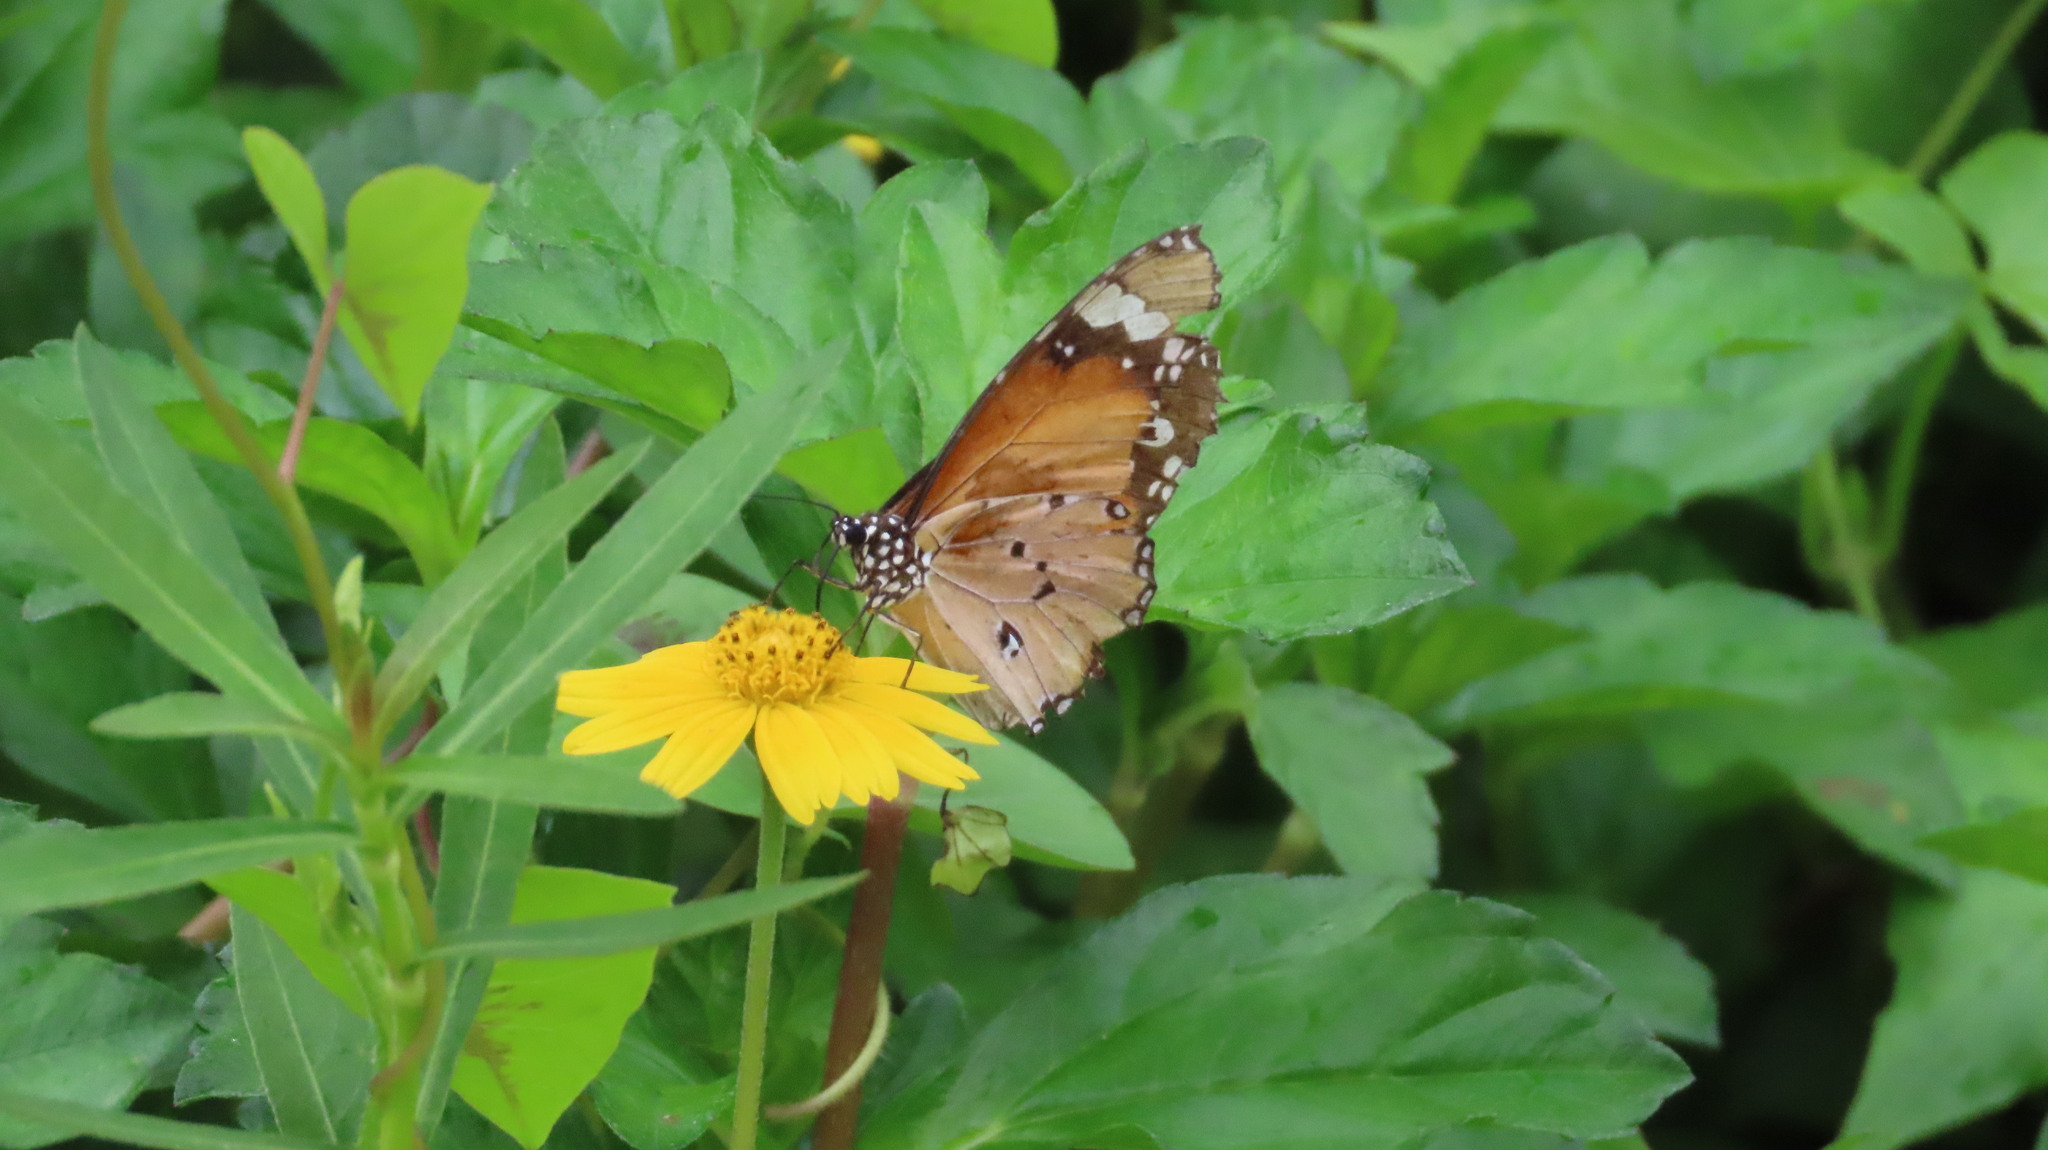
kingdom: Animalia
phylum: Arthropoda
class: Insecta
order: Lepidoptera
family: Nymphalidae
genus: Danaus
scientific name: Danaus chrysippus
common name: Plain tiger
